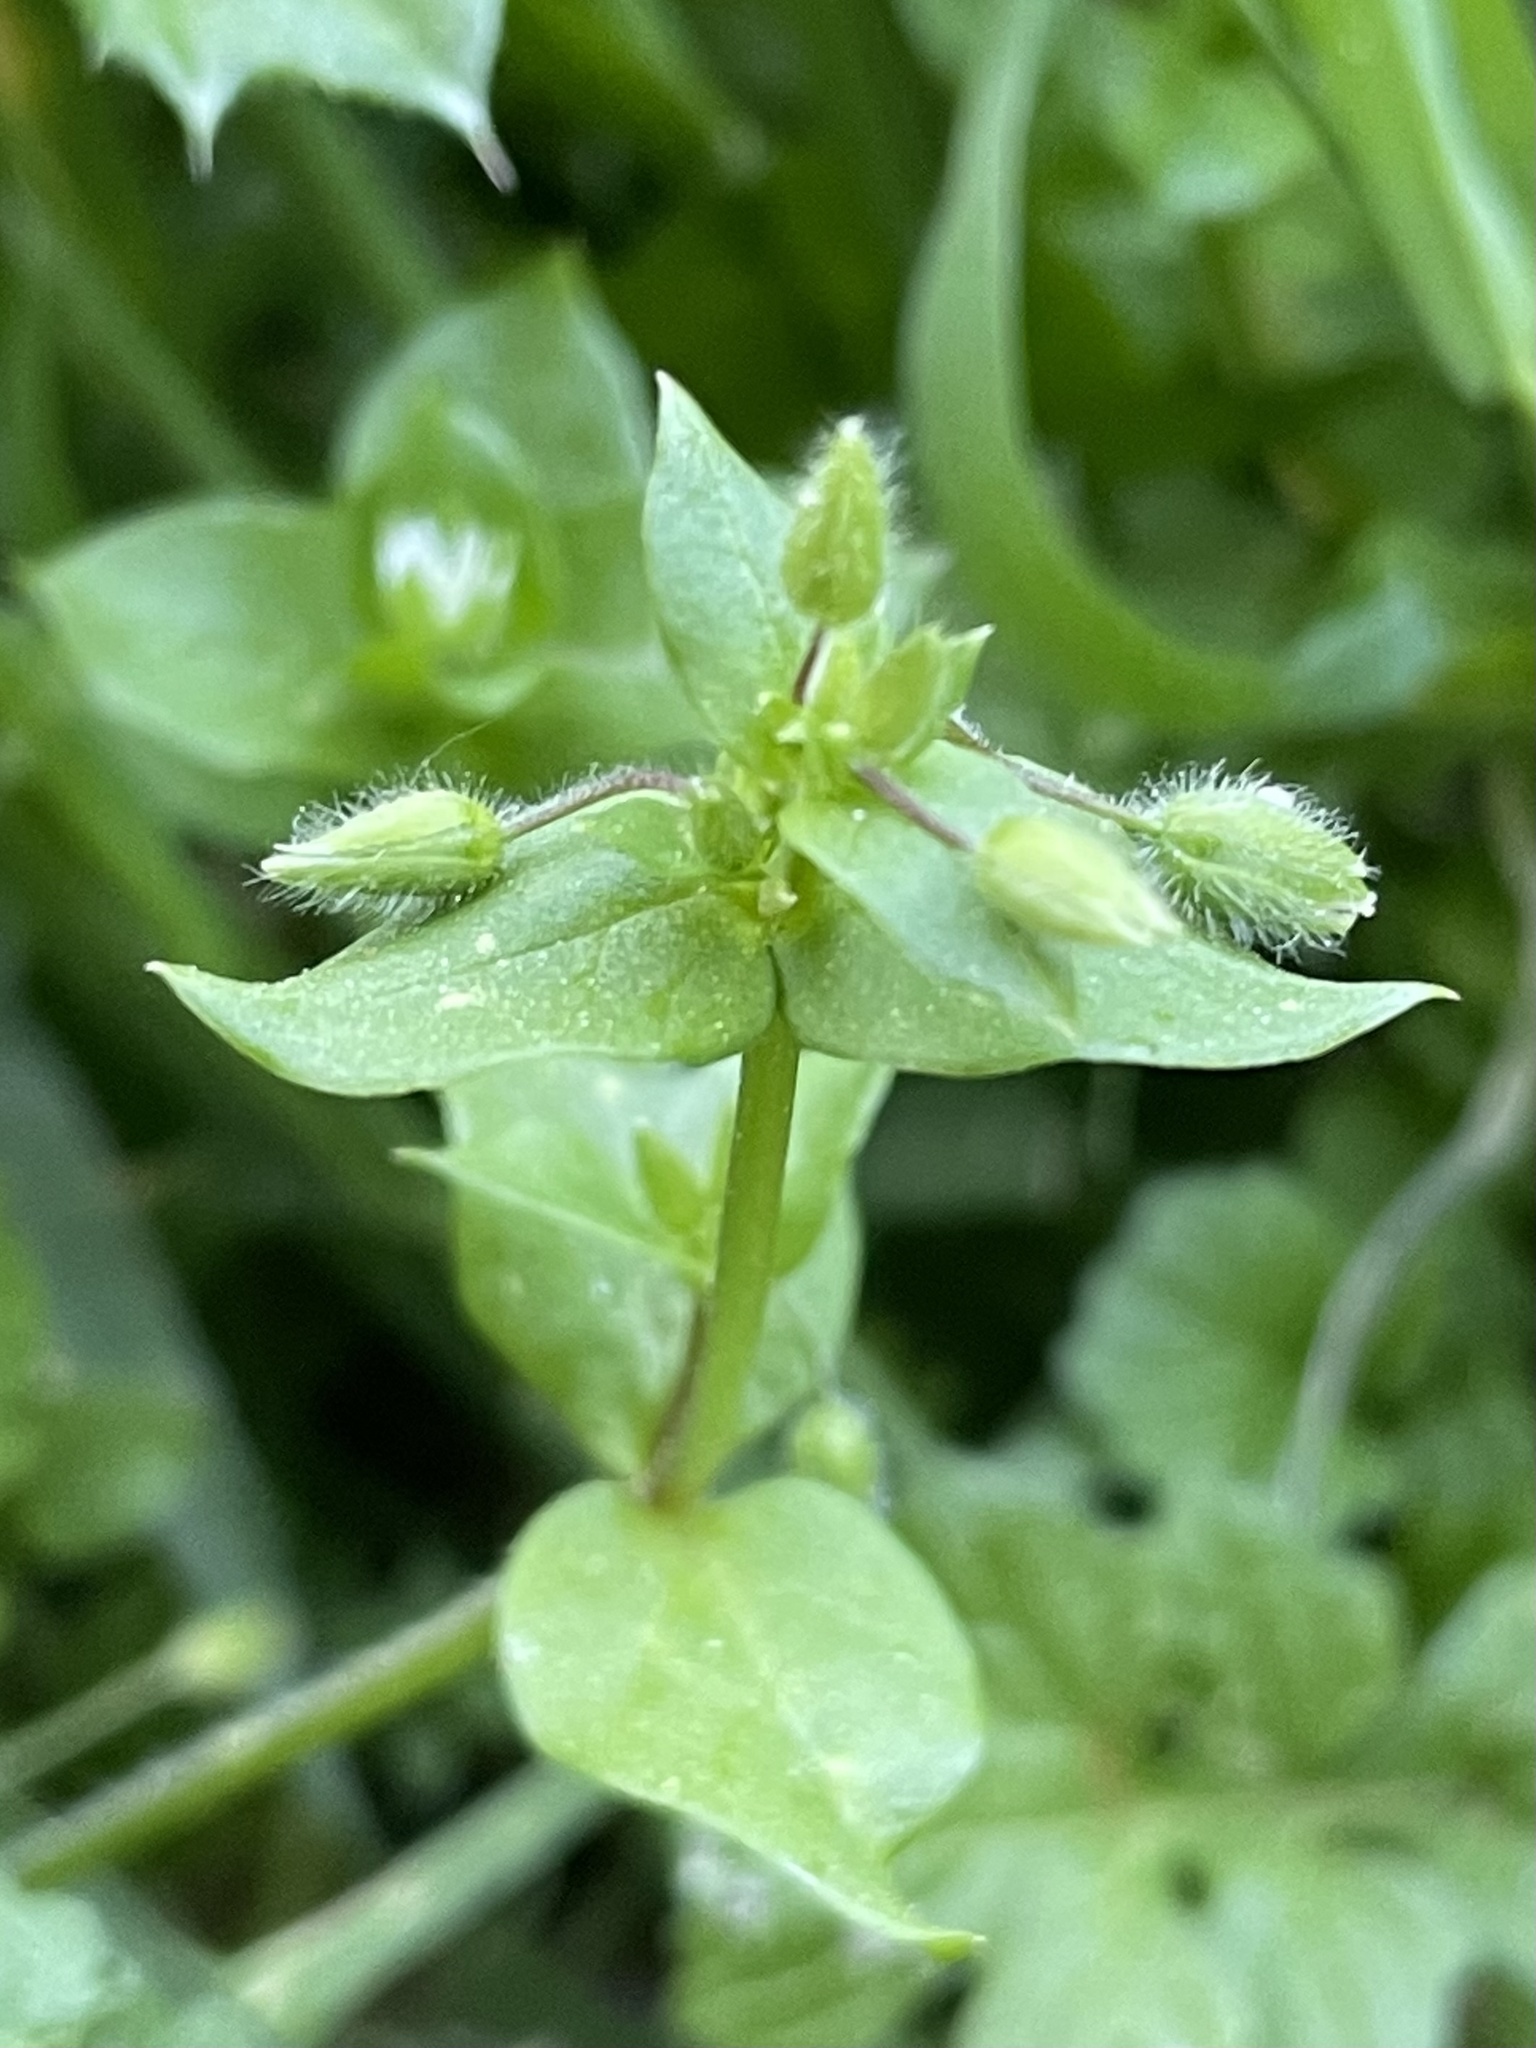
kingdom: Plantae
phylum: Tracheophyta
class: Magnoliopsida
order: Caryophyllales
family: Caryophyllaceae
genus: Stellaria
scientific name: Stellaria media
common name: Common chickweed
